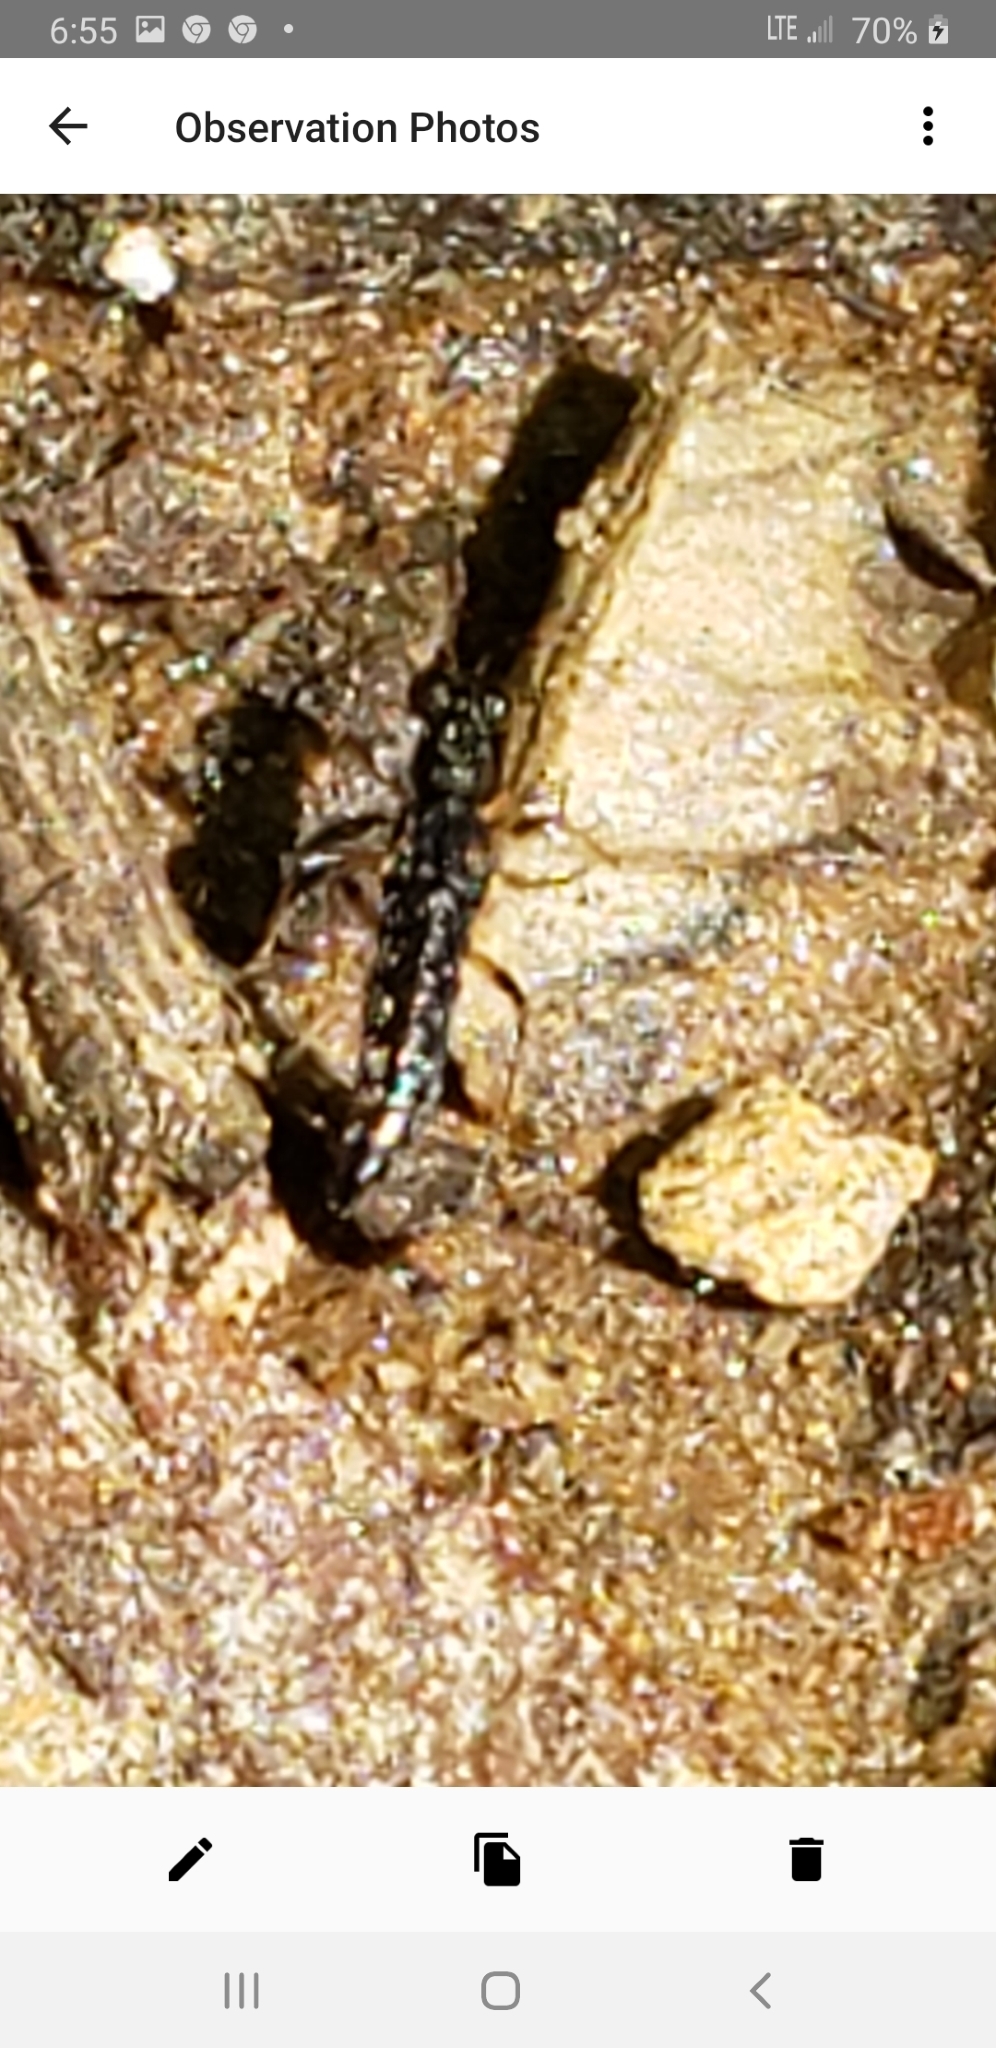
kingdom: Animalia
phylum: Arthropoda
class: Insecta
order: Coleoptera
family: Staphylinidae
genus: Stenus
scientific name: Stenus colon
